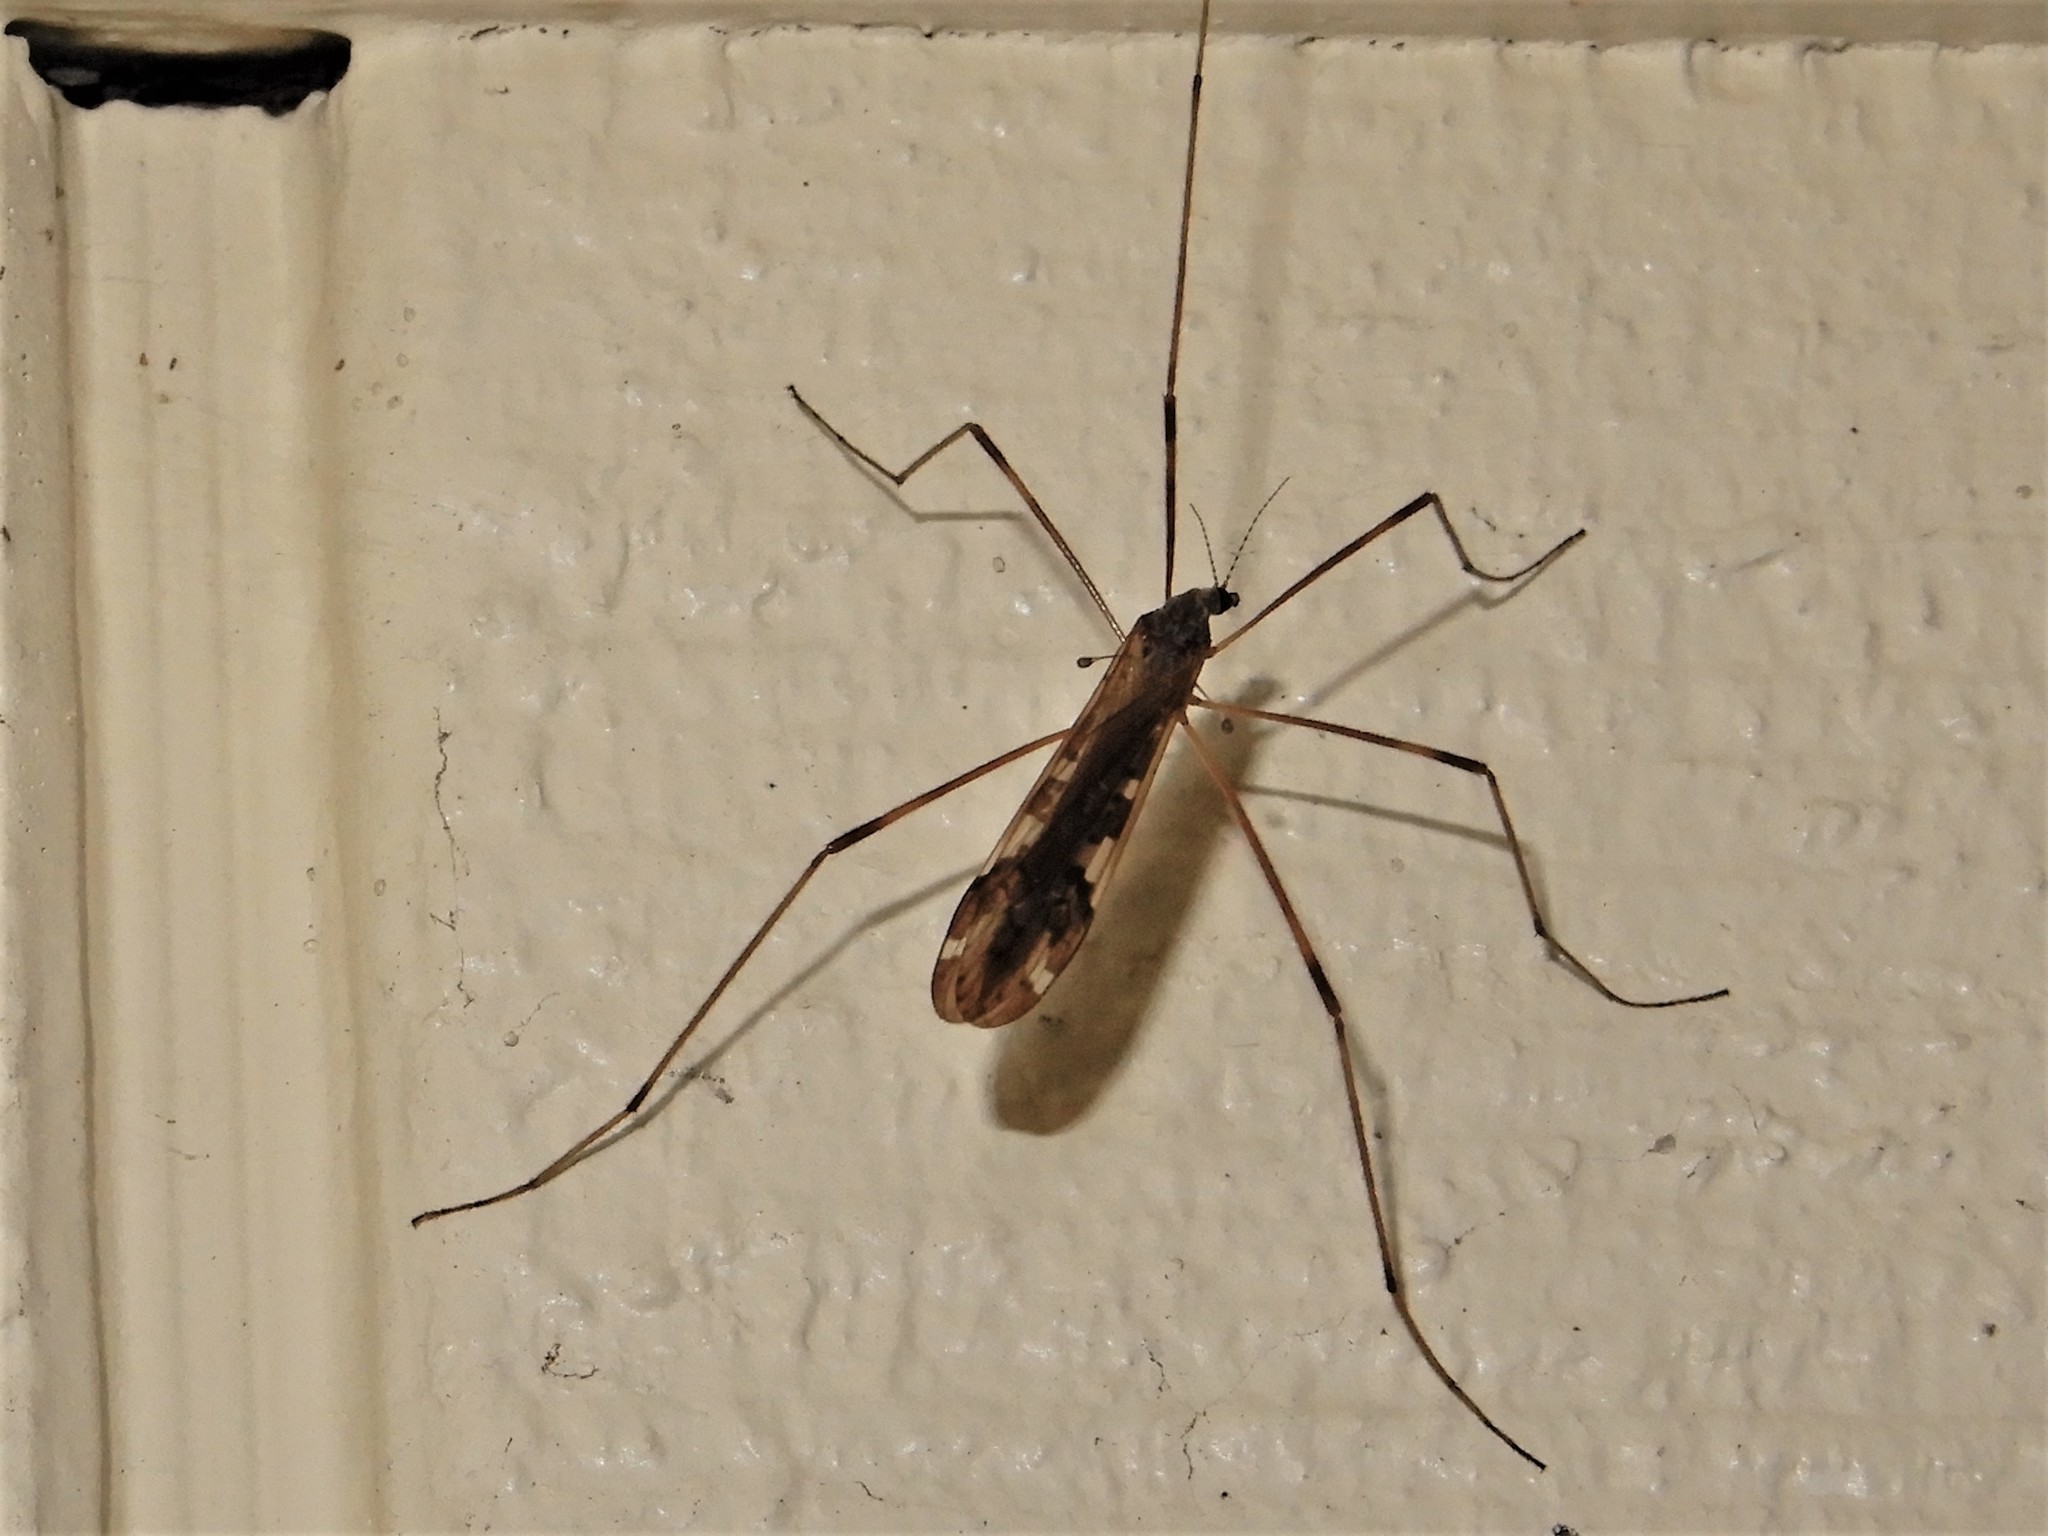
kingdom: Animalia
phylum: Arthropoda
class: Insecta
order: Diptera
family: Limoniidae
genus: Paralimnophila
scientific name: Paralimnophila skusei
